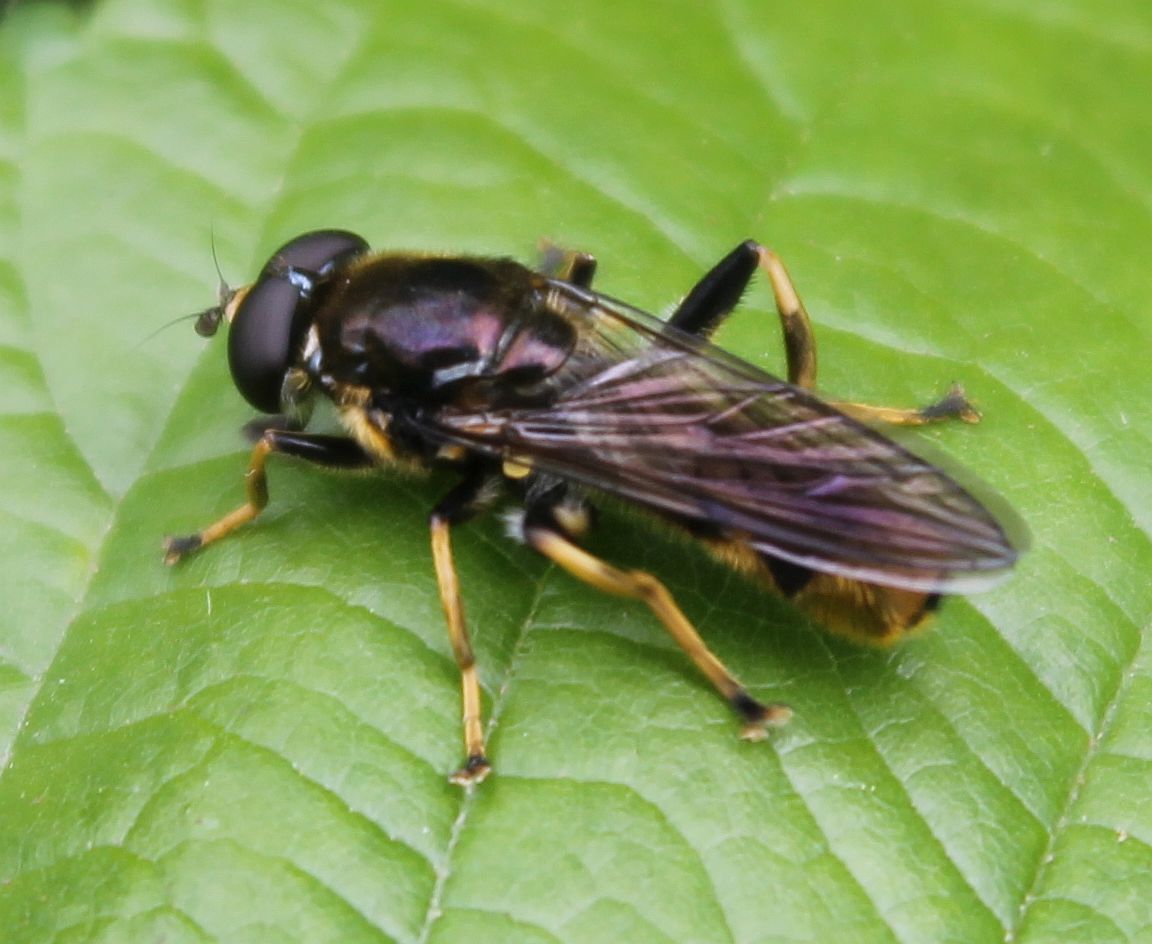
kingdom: Animalia
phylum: Arthropoda
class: Insecta
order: Diptera
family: Syrphidae
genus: Xylota
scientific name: Xylota sylvarum
